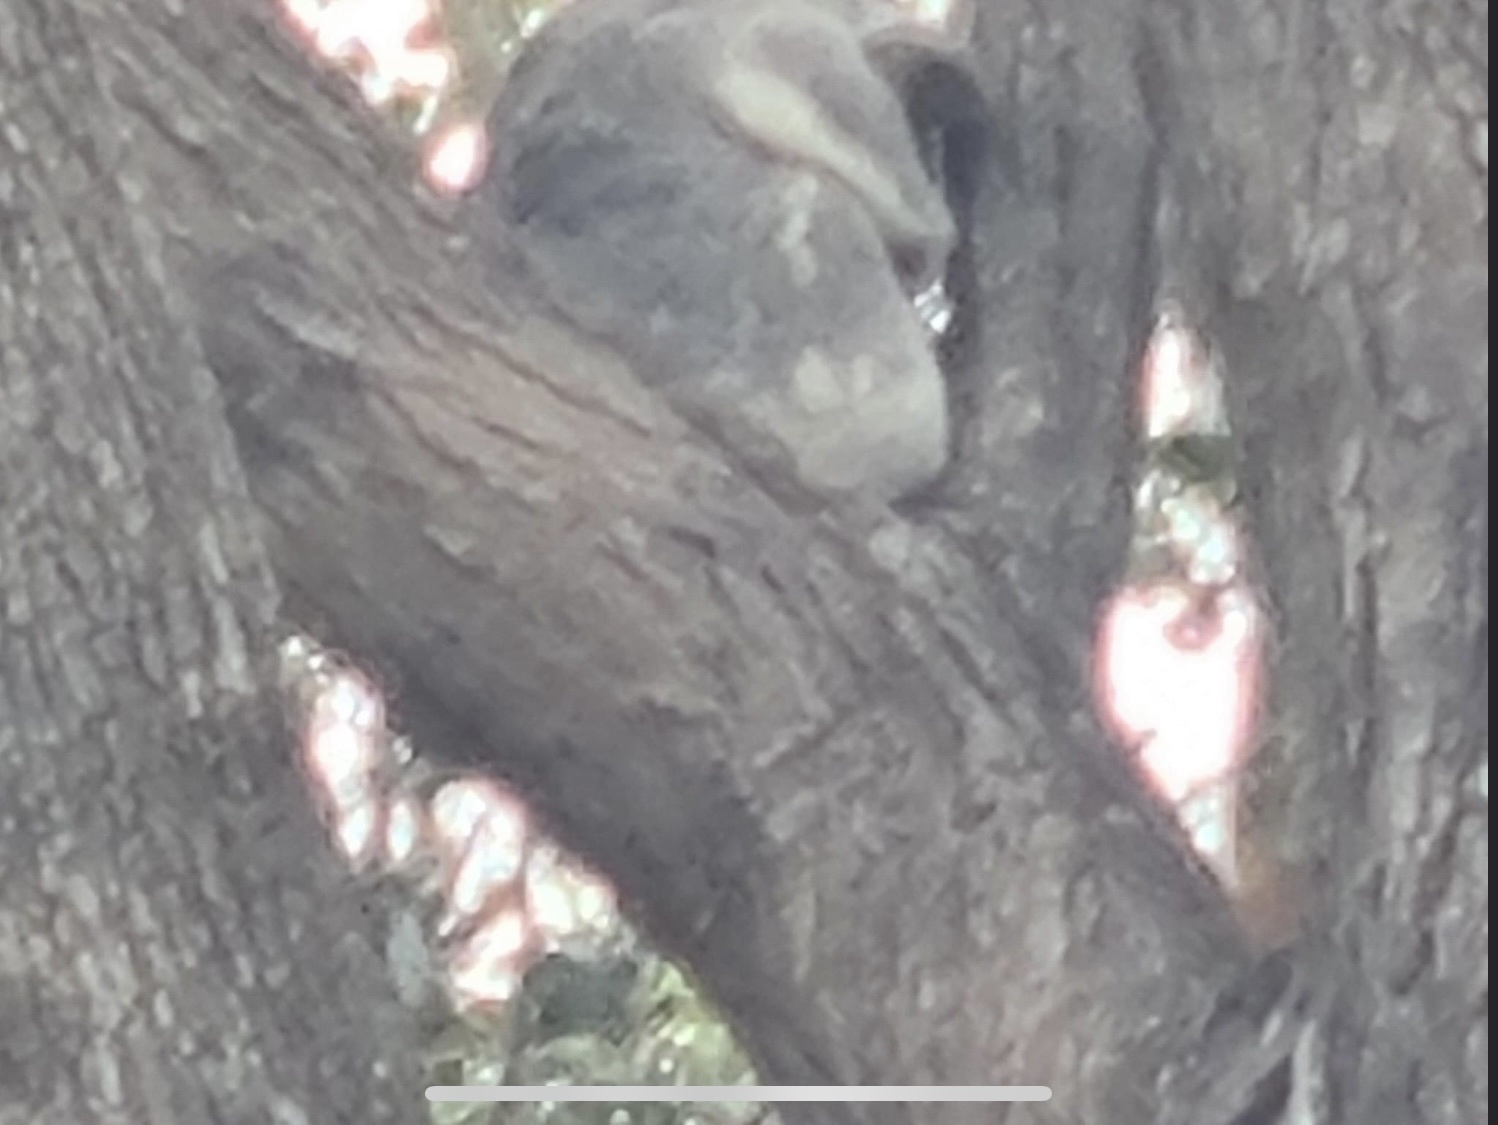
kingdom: Animalia
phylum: Chordata
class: Mammalia
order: Diprotodontia
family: Phascolarctidae
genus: Phascolarctos
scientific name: Phascolarctos cinereus
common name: Koala
